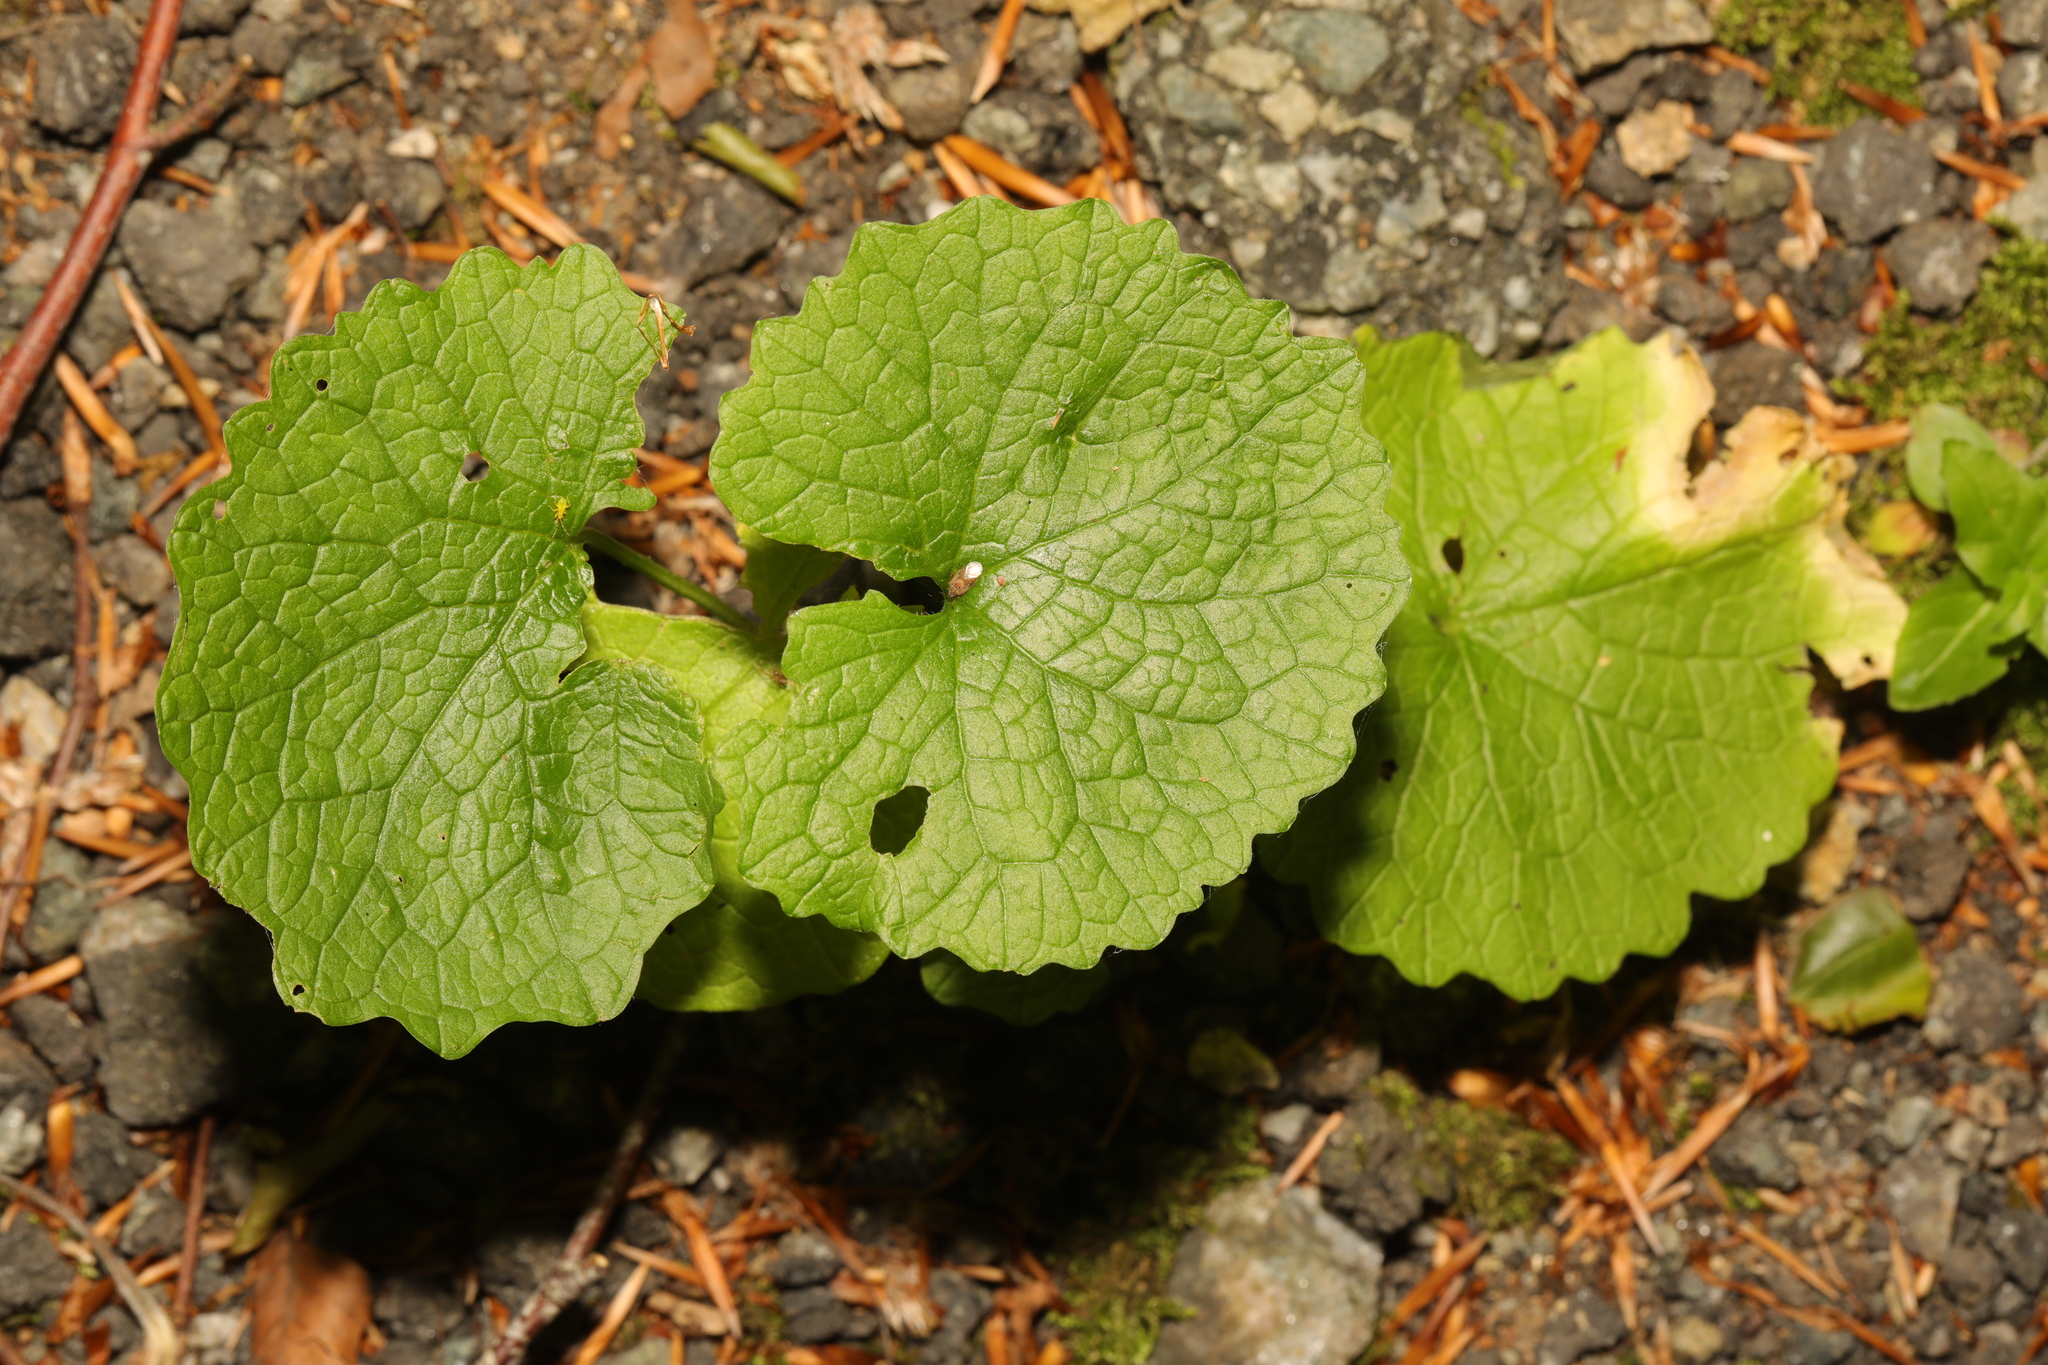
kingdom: Plantae
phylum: Tracheophyta
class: Magnoliopsida
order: Brassicales
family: Brassicaceae
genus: Alliaria
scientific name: Alliaria petiolata
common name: Garlic mustard
